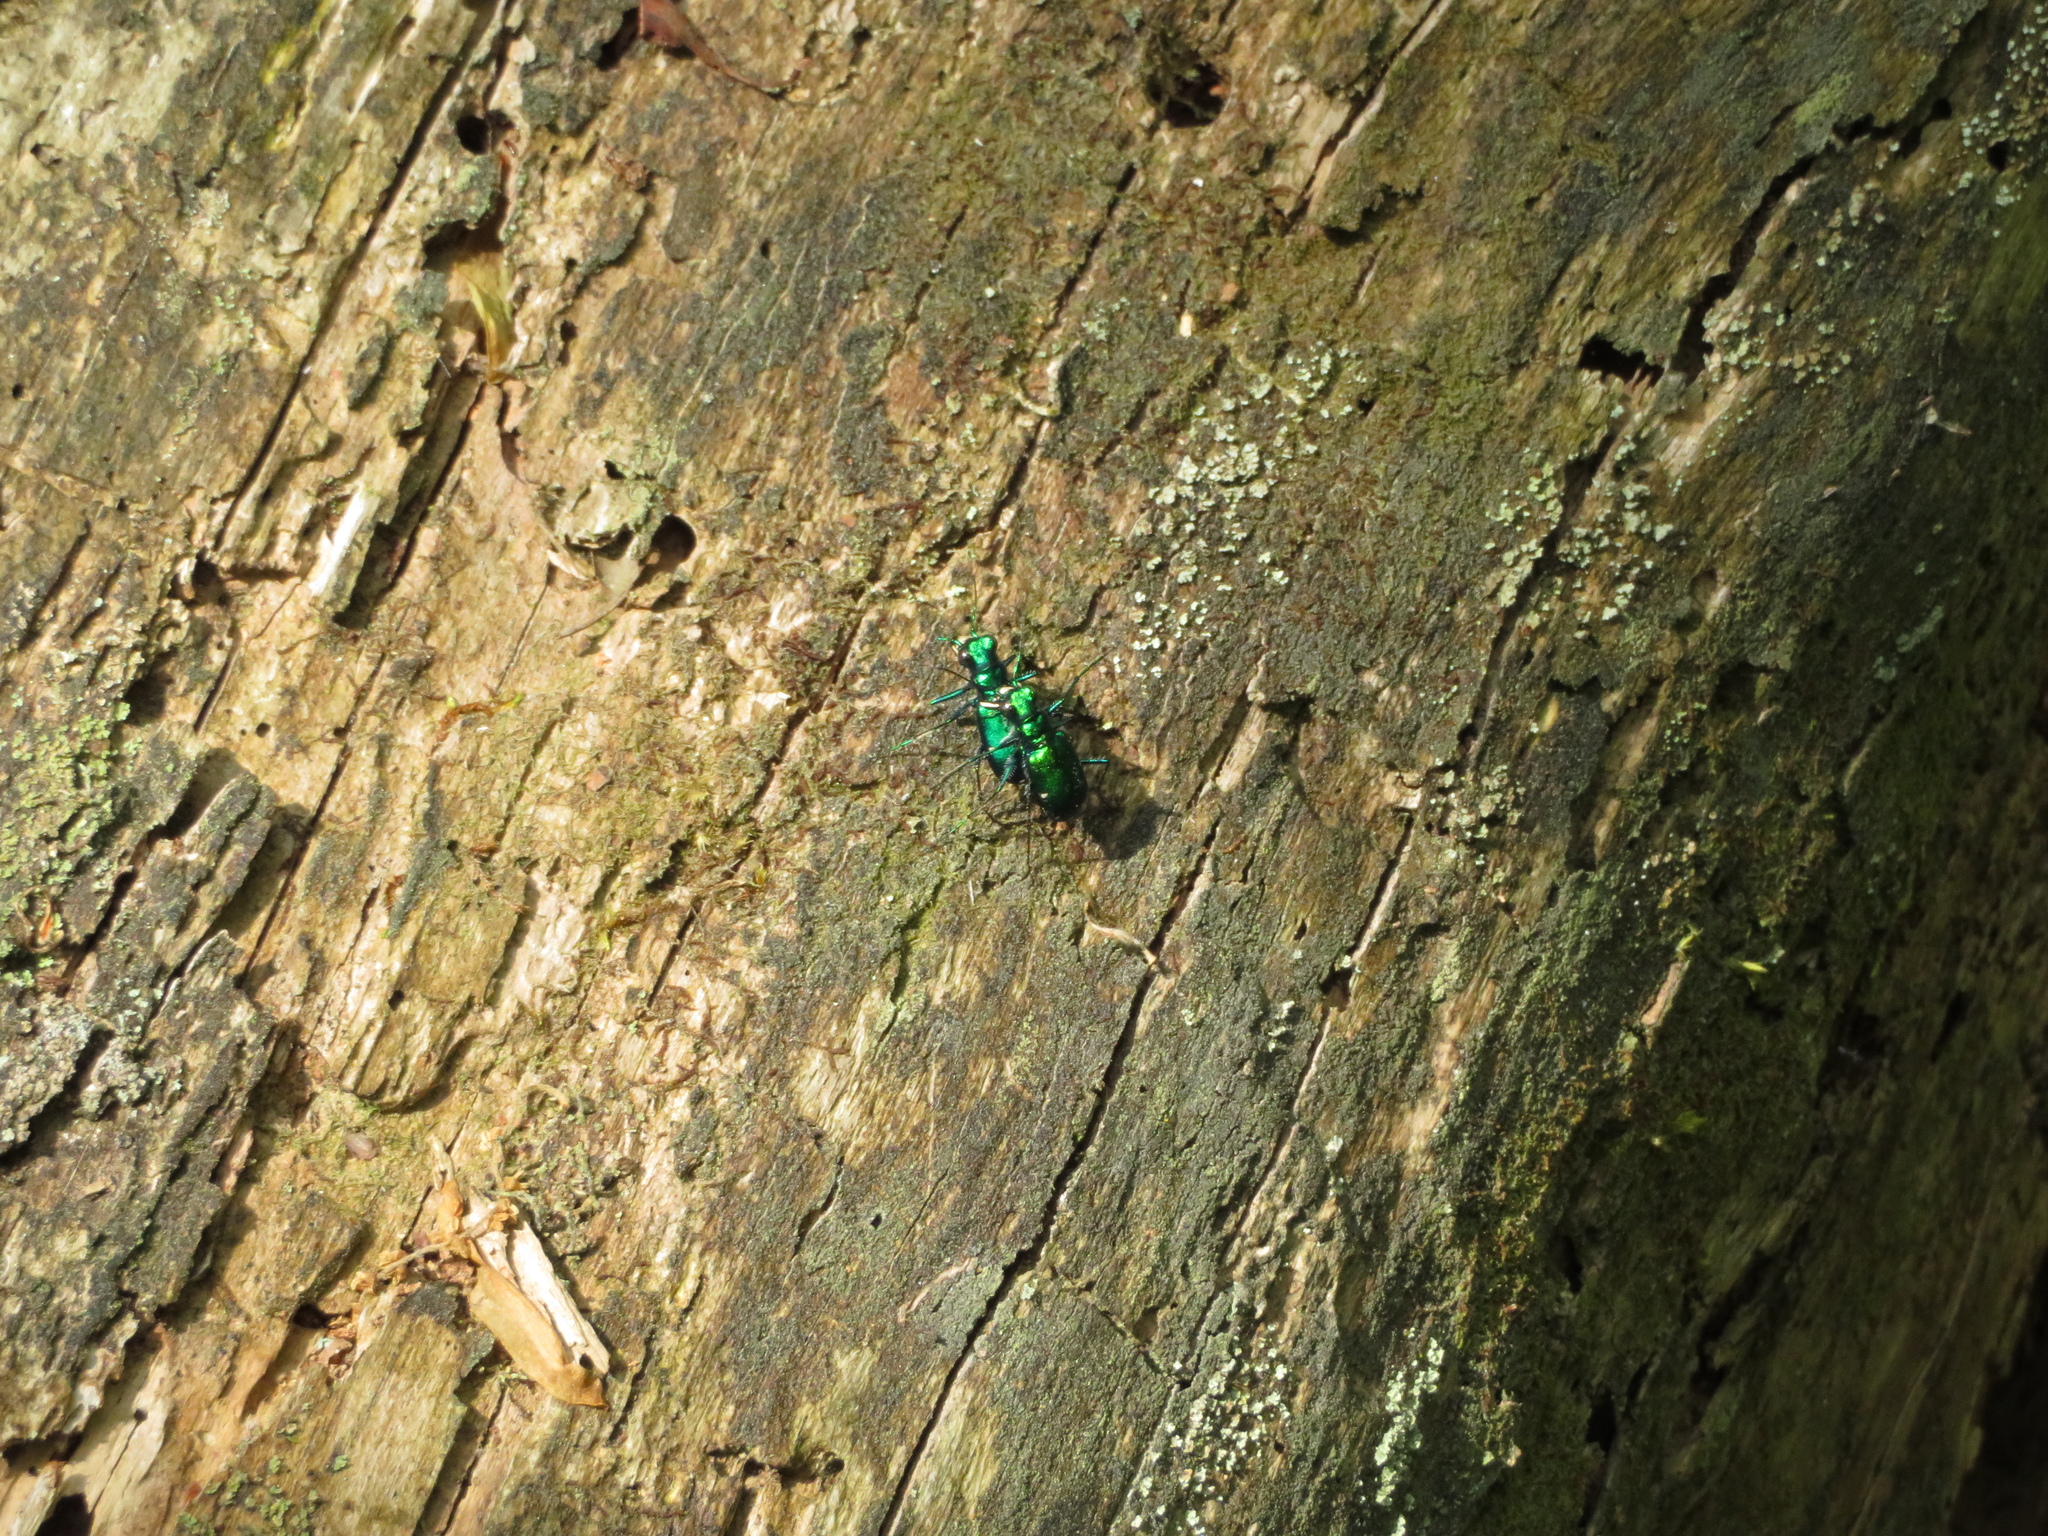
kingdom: Animalia
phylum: Arthropoda
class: Insecta
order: Coleoptera
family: Carabidae
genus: Cicindela
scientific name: Cicindela sexguttata
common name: Six-spotted tiger beetle
